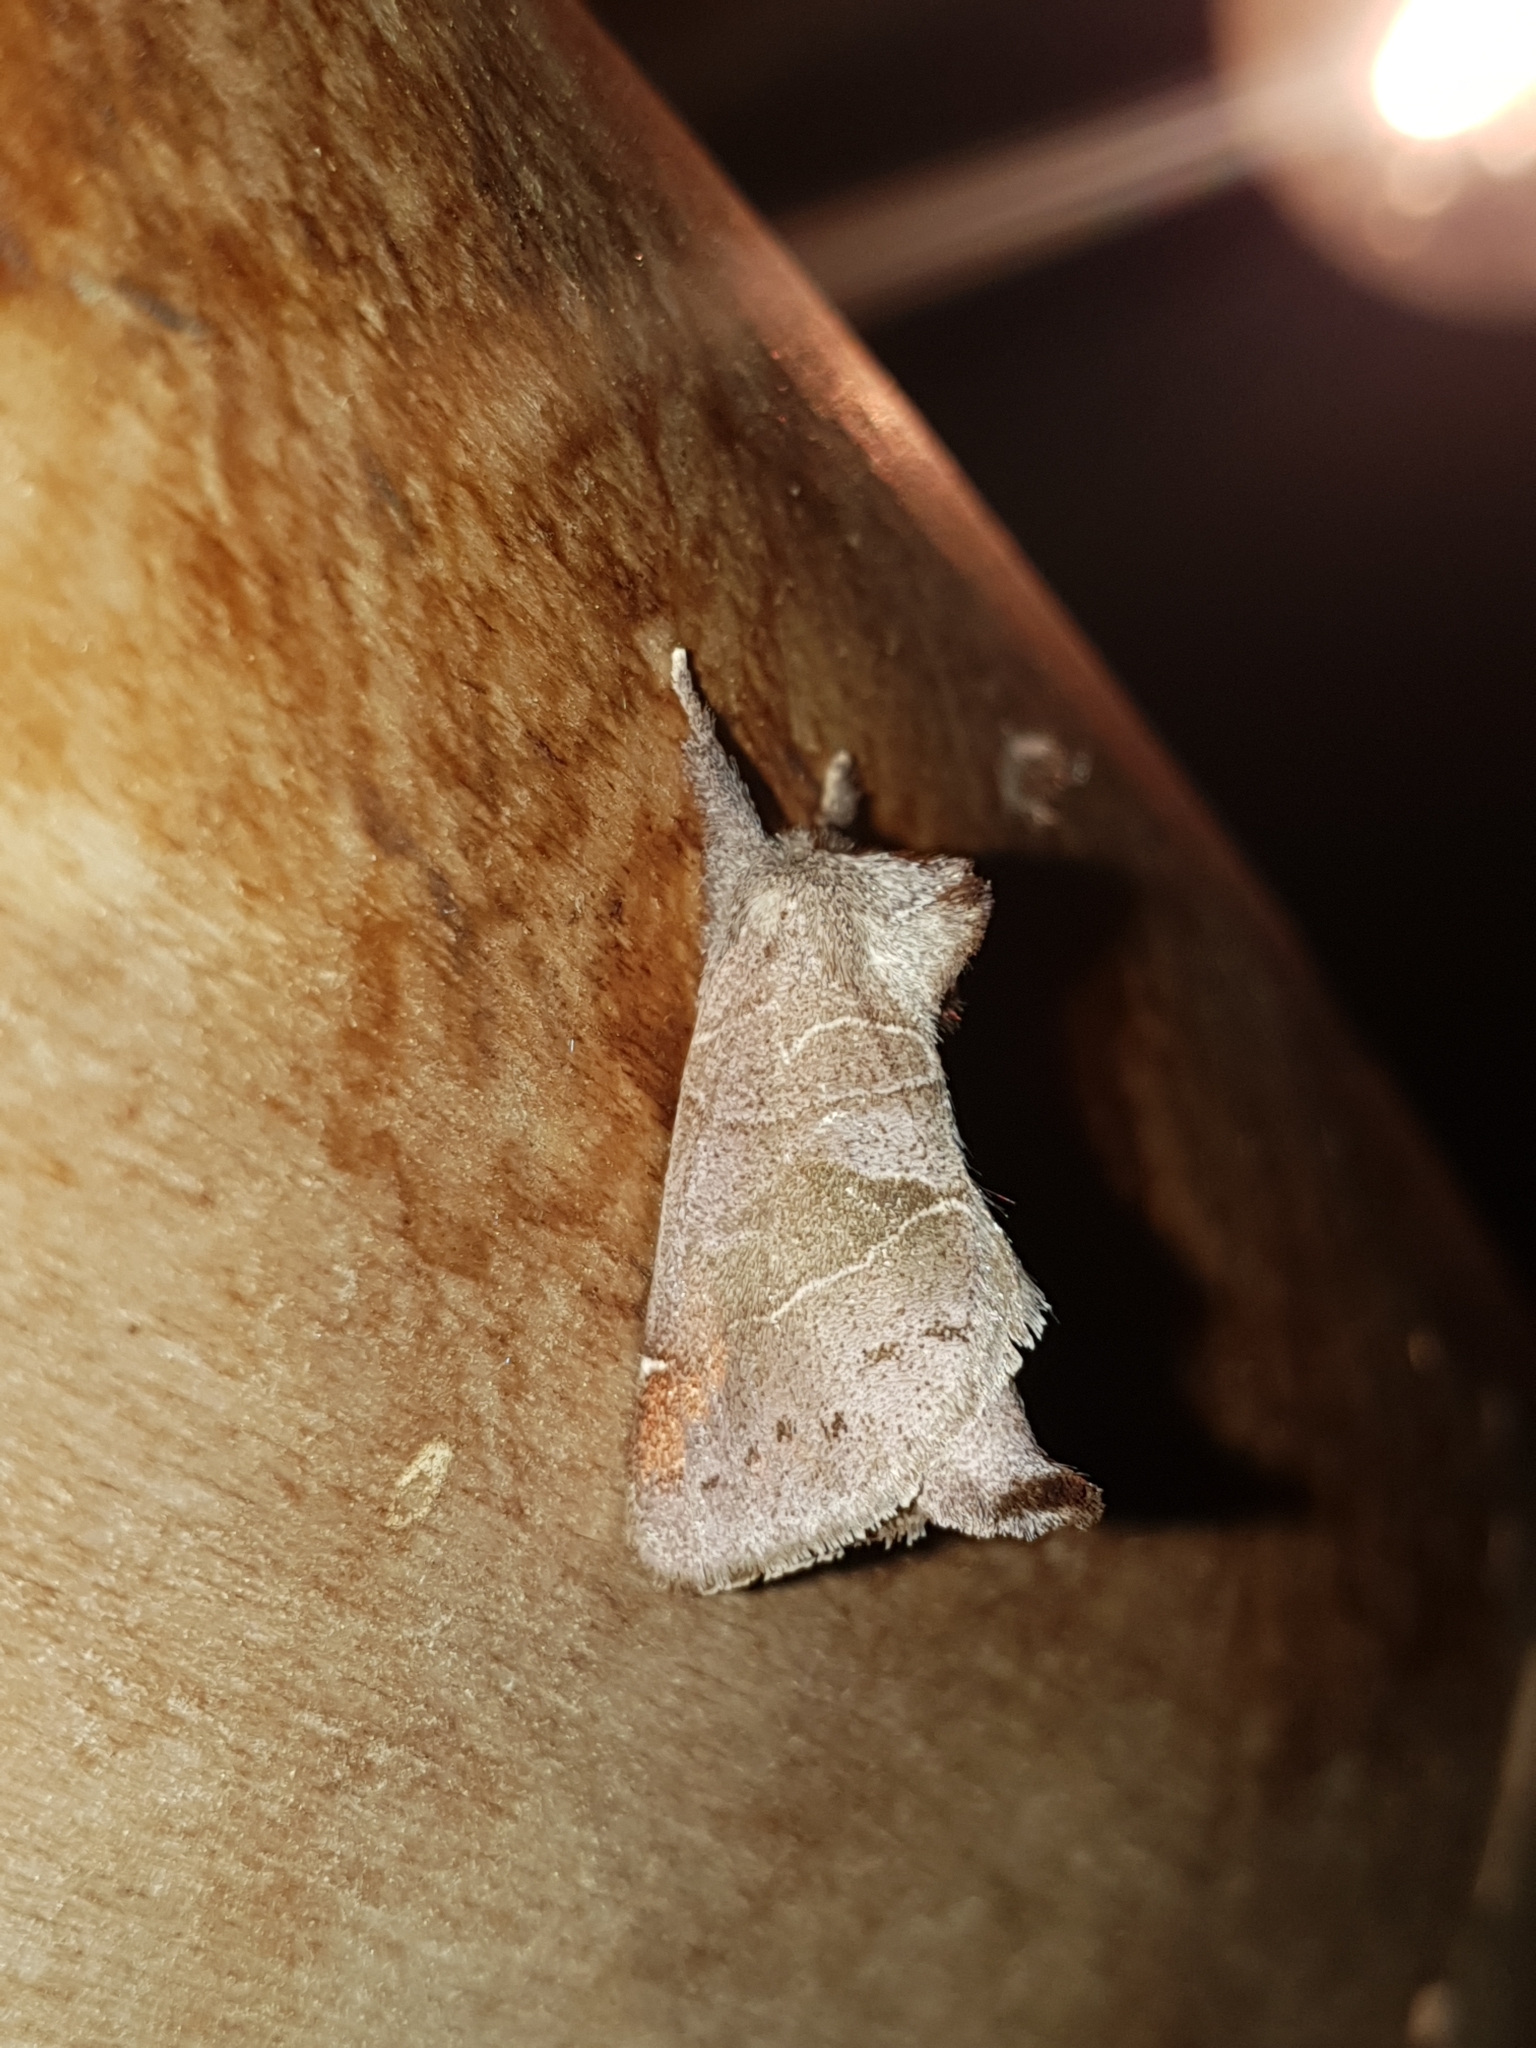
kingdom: Animalia
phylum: Arthropoda
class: Insecta
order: Lepidoptera
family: Notodontidae
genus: Clostera
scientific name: Clostera pigra
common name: Small chocolate-tip
